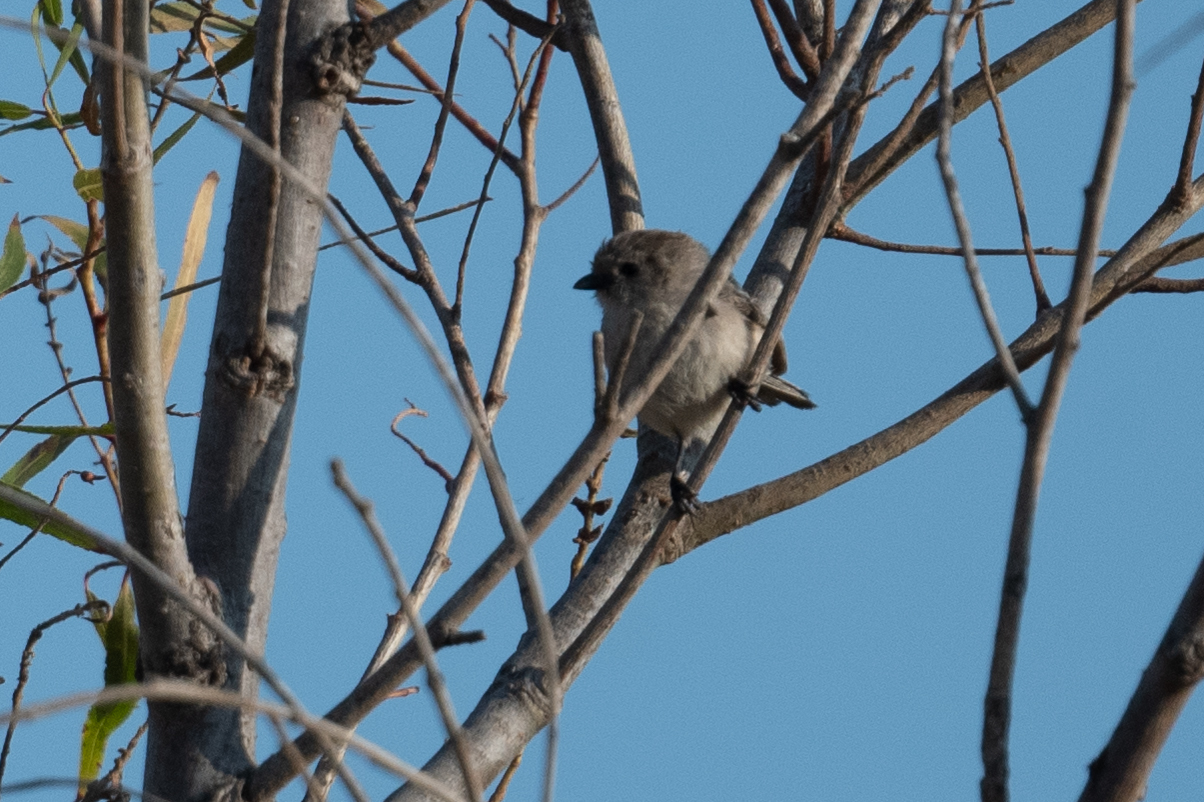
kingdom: Animalia
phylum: Chordata
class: Aves
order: Passeriformes
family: Aegithalidae
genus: Psaltriparus
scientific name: Psaltriparus minimus
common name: American bushtit
